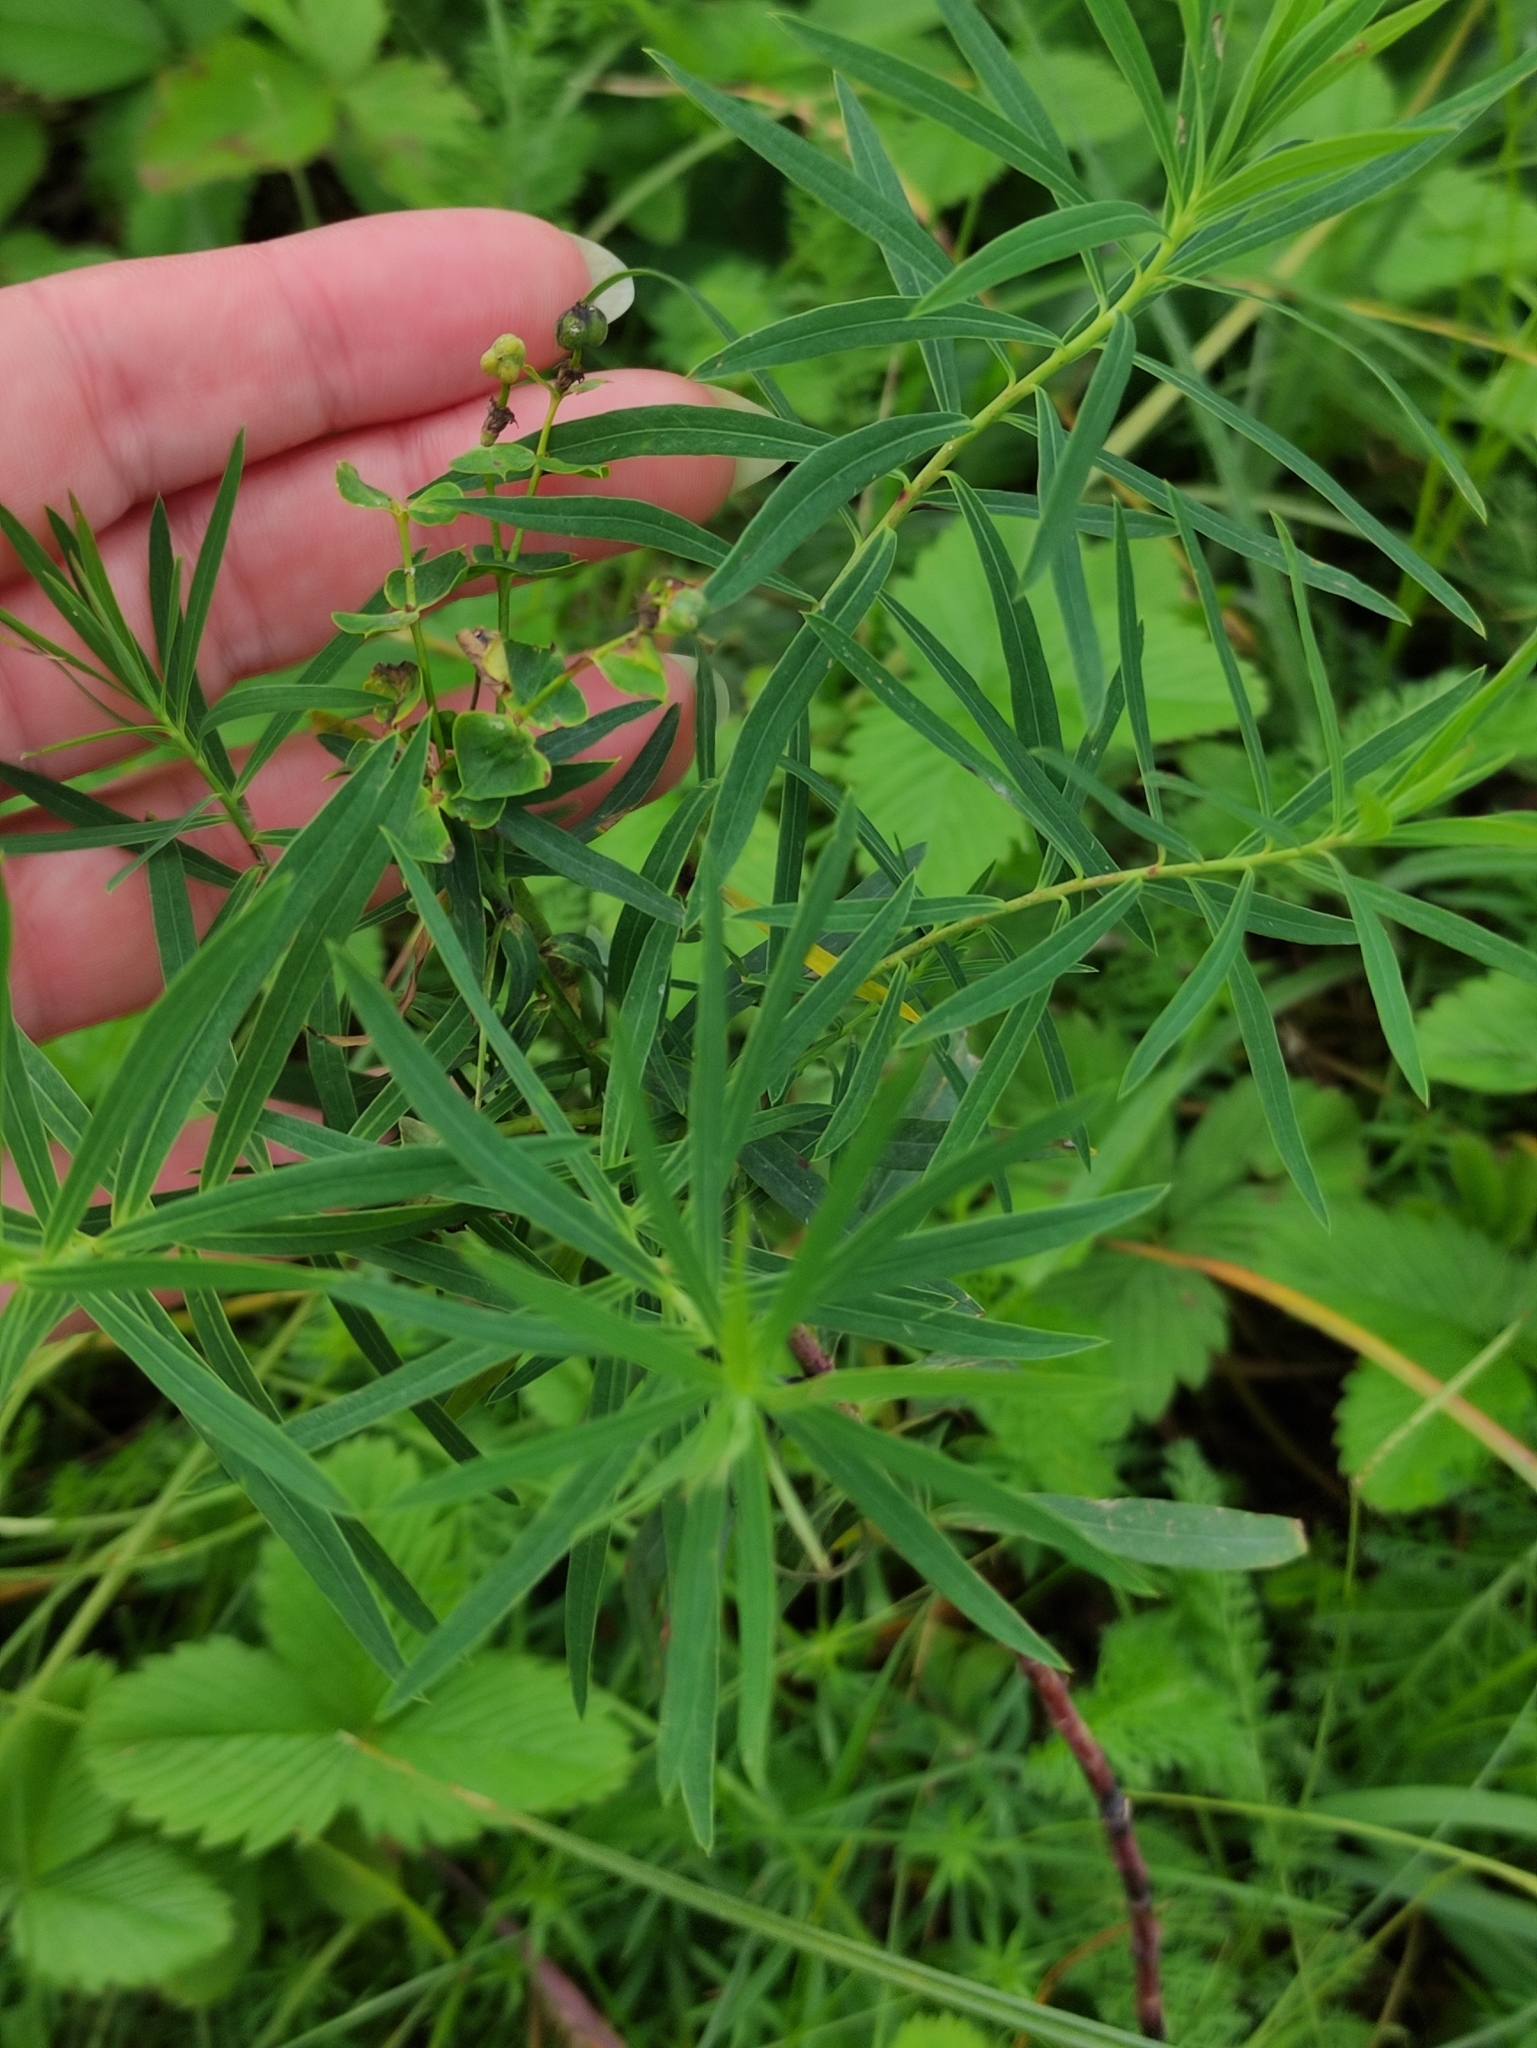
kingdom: Plantae
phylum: Tracheophyta
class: Magnoliopsida
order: Malpighiales
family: Euphorbiaceae
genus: Euphorbia
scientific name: Euphorbia virgata
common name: Leafy spurge
